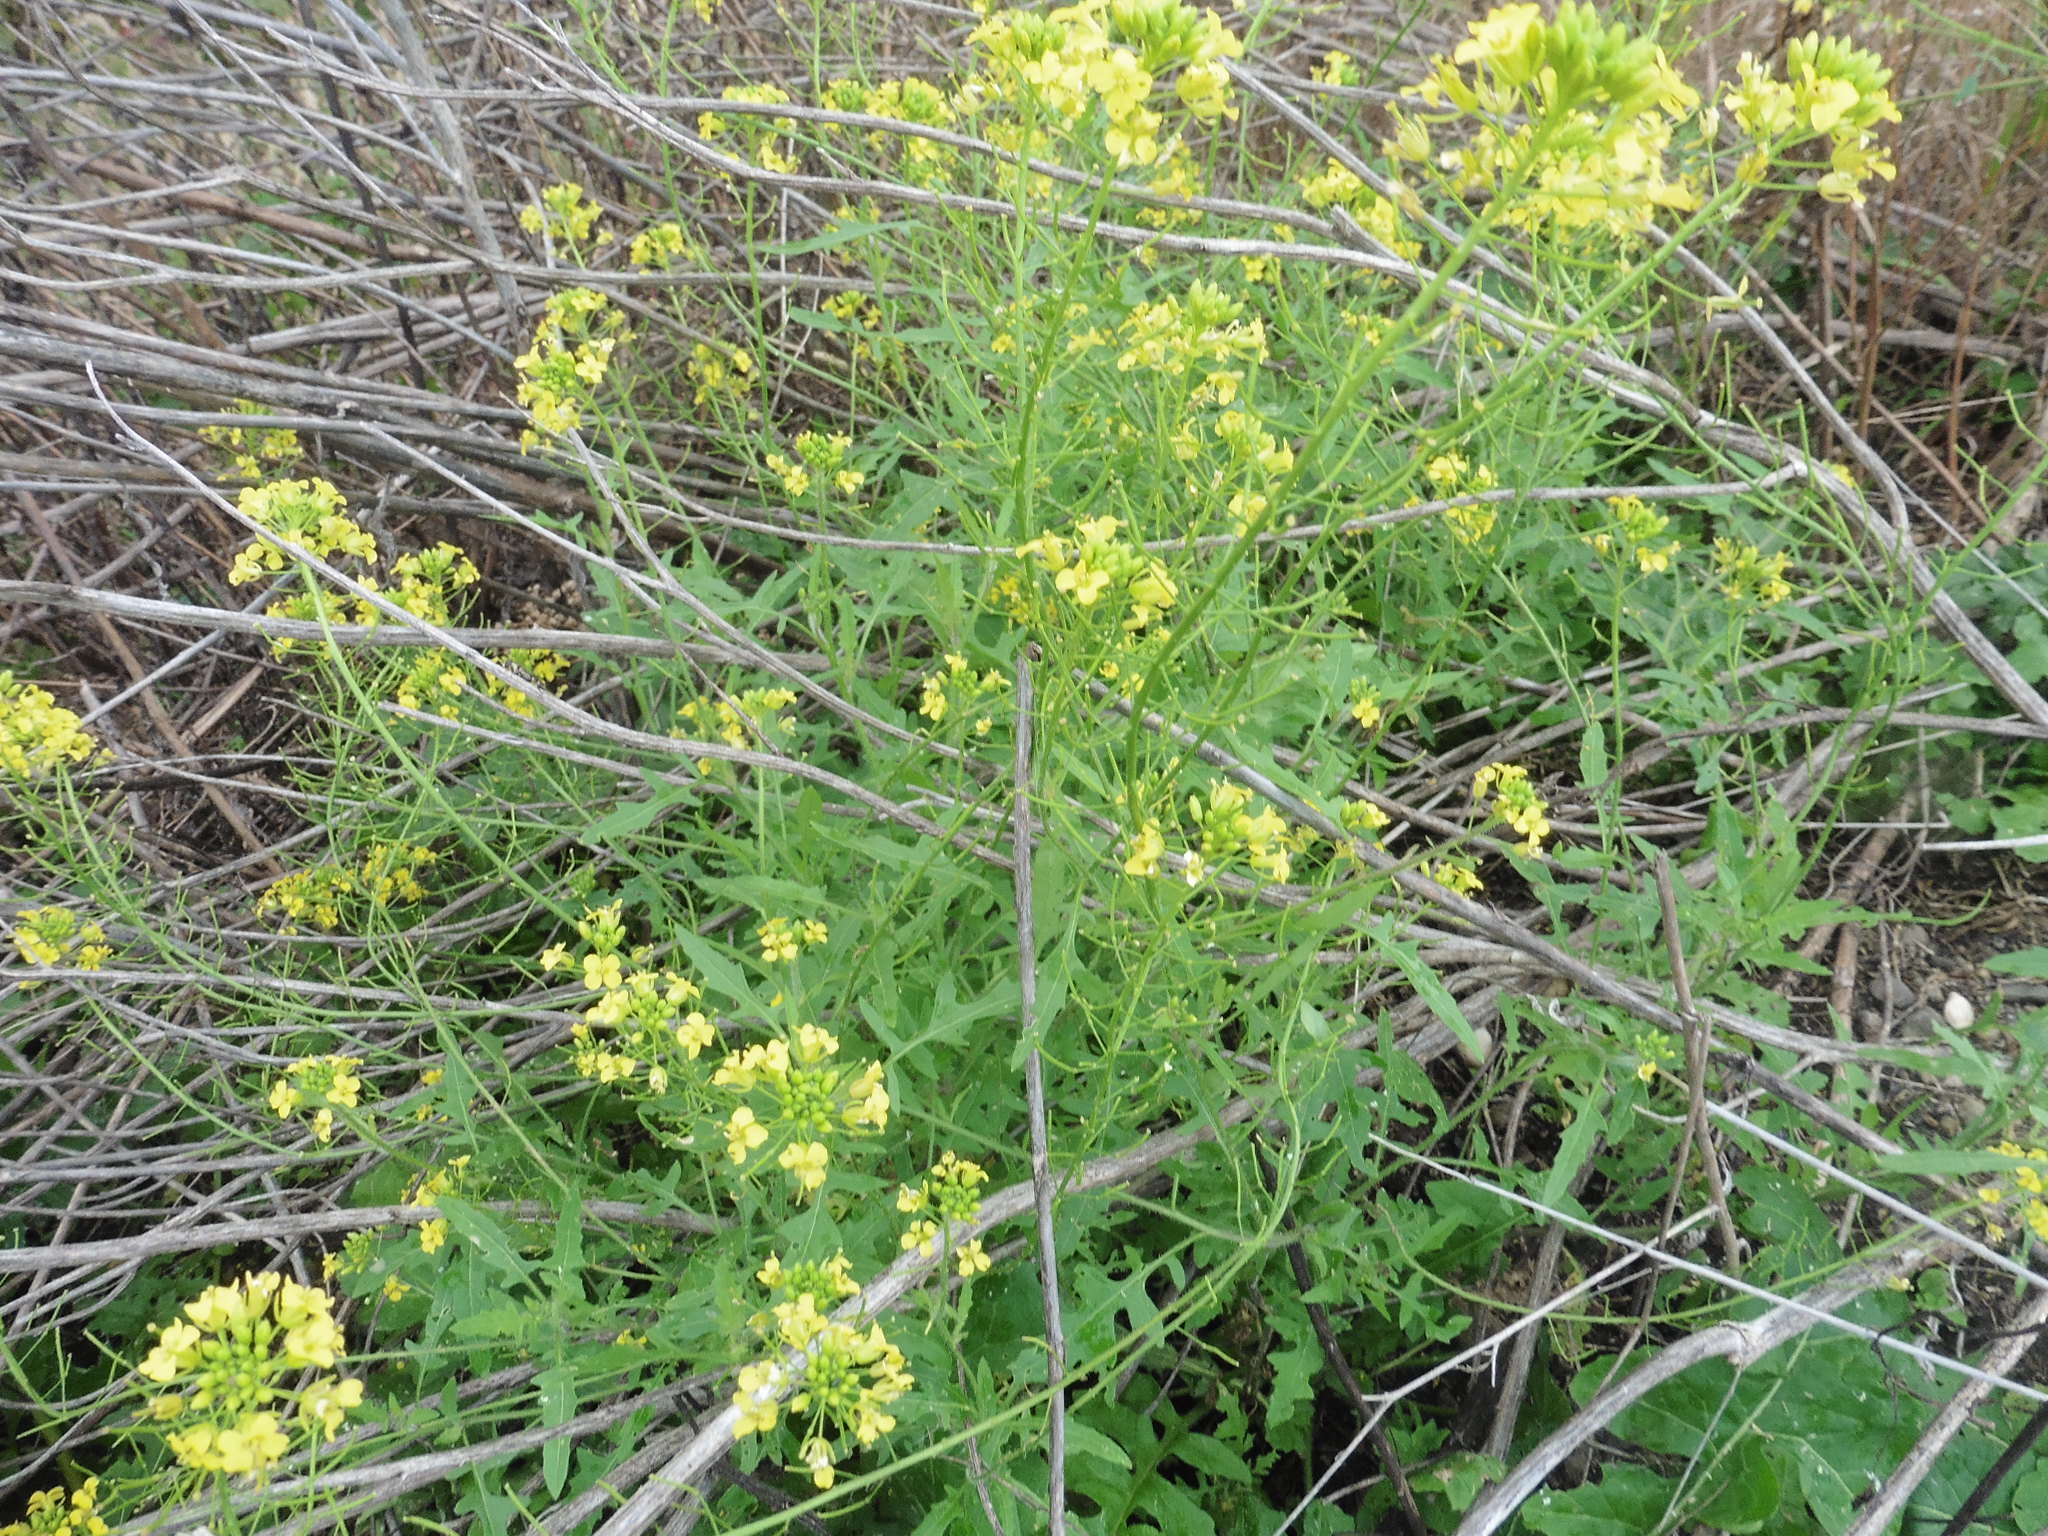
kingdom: Plantae
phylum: Tracheophyta
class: Magnoliopsida
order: Brassicales
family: Brassicaceae
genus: Sisymbrium
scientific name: Sisymbrium loeselii
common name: False london-rocket
